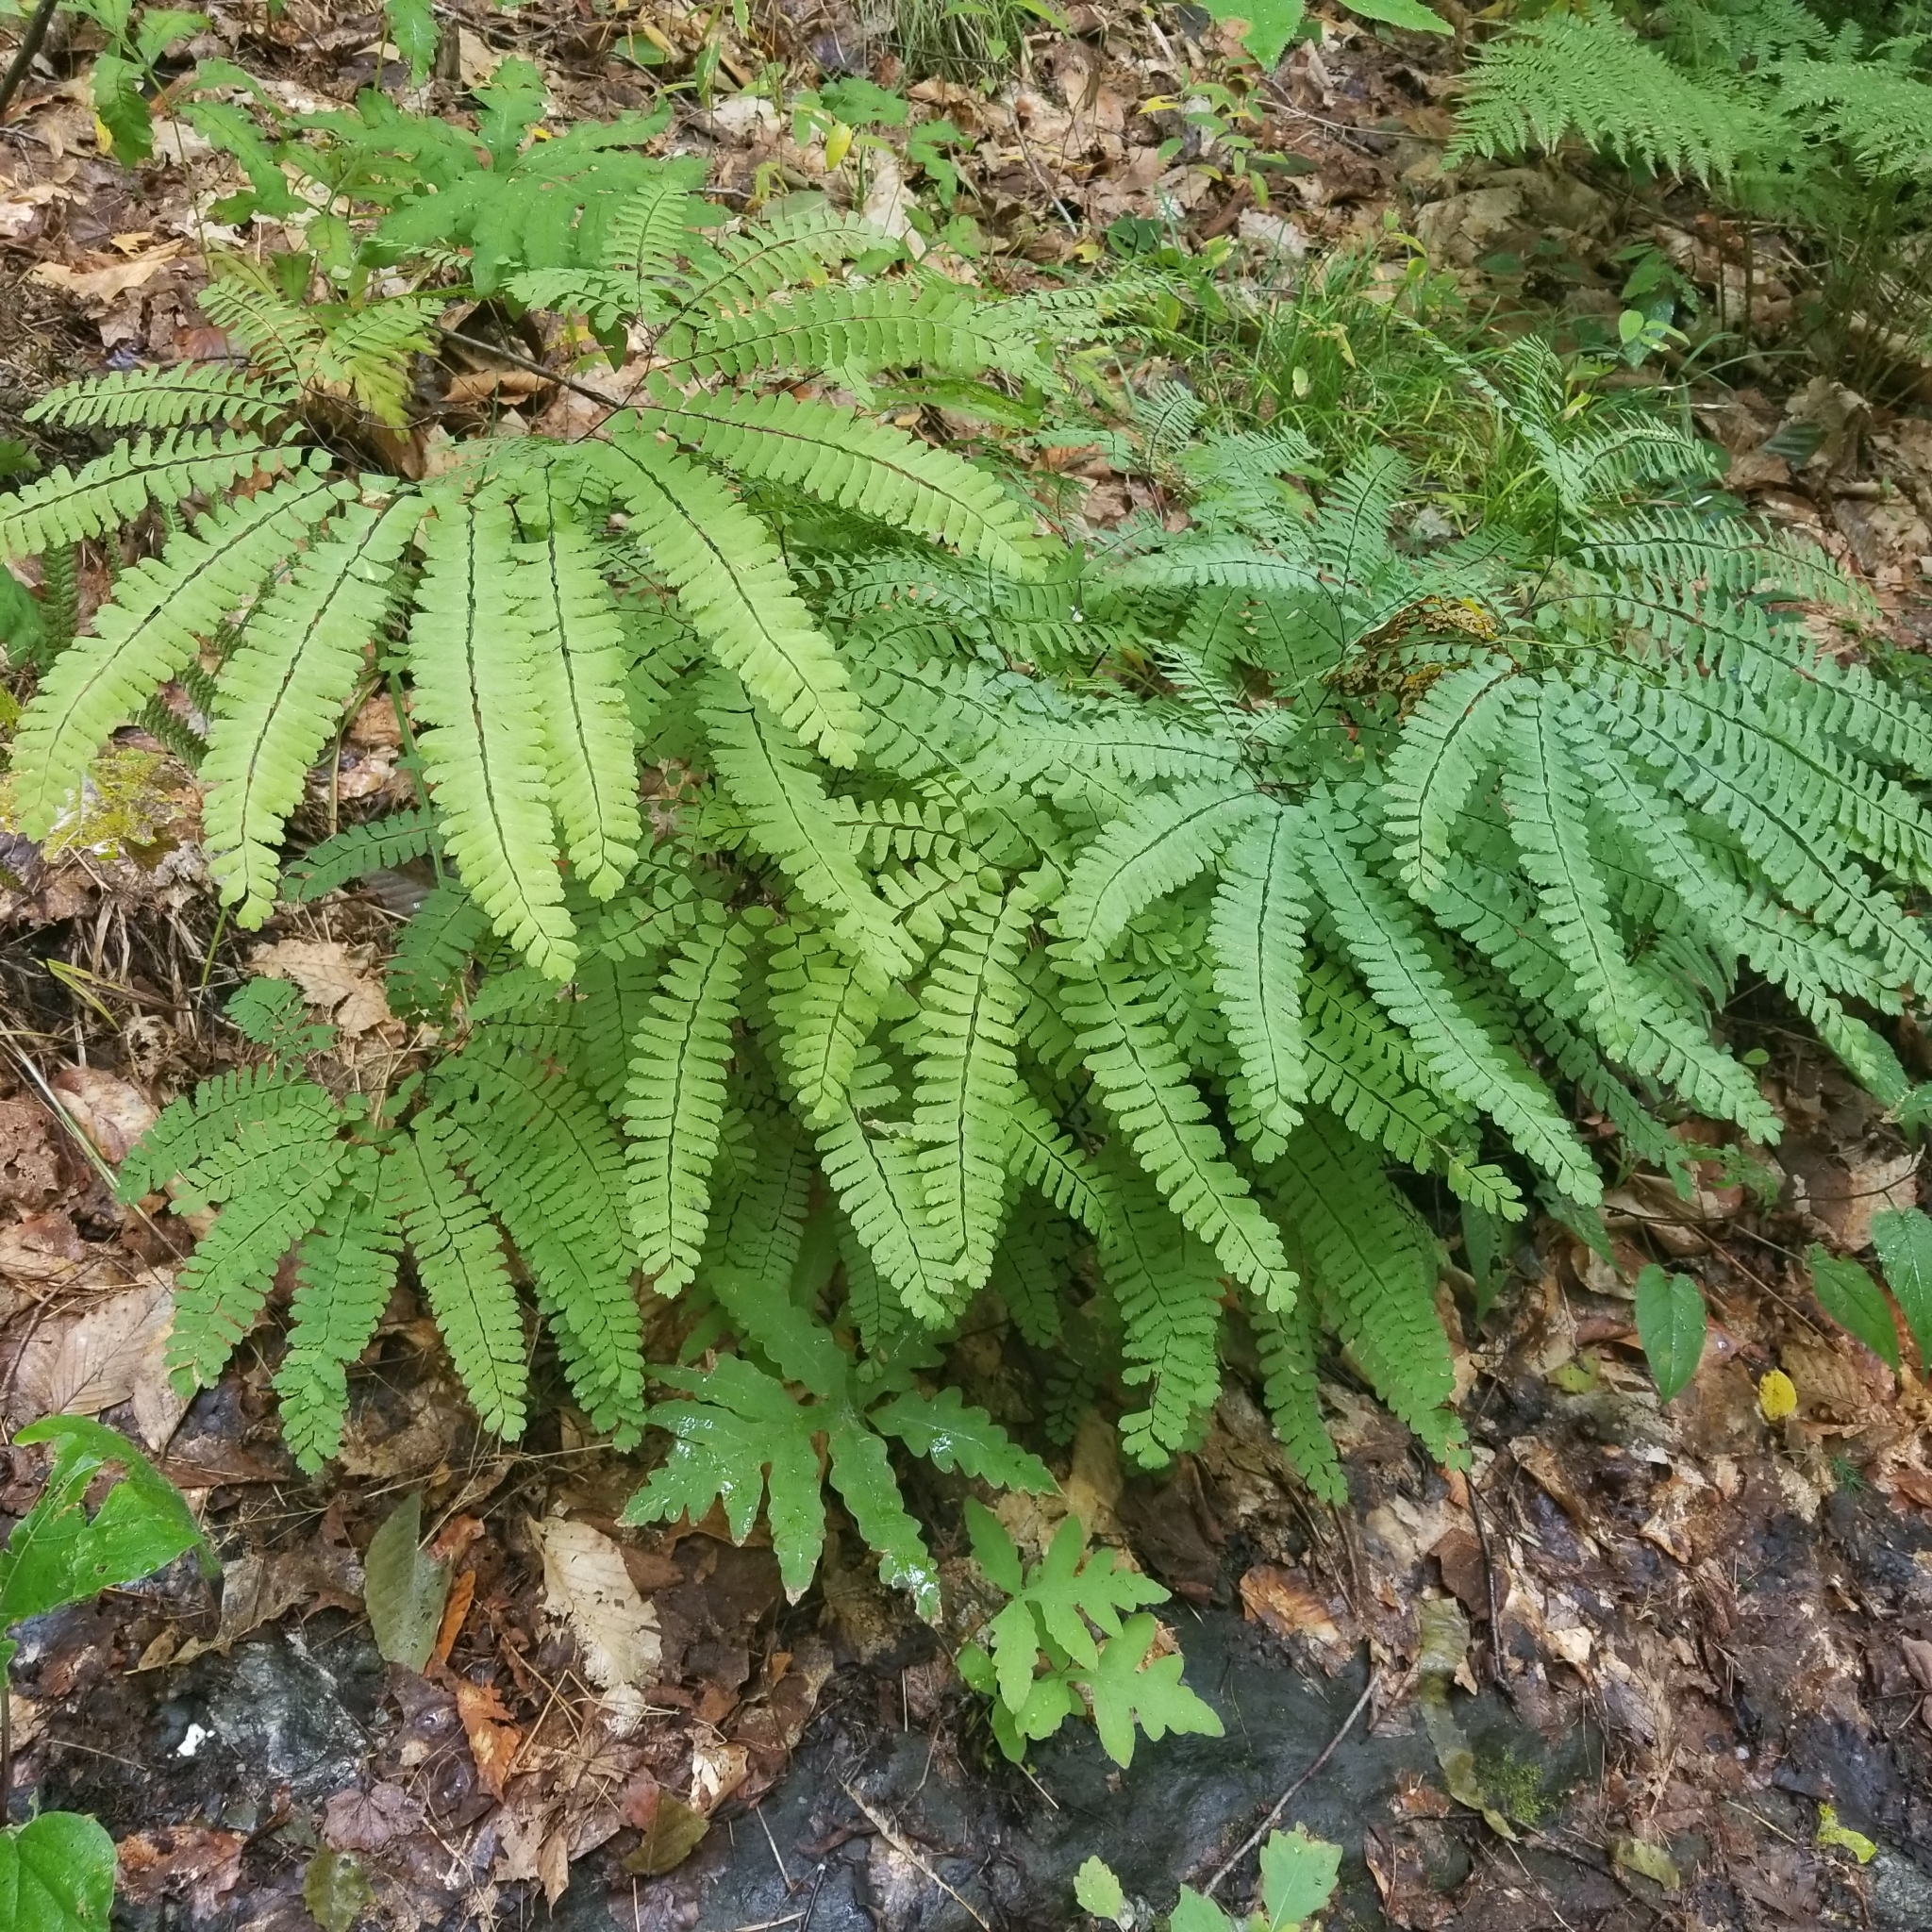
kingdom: Plantae
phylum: Tracheophyta
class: Polypodiopsida
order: Polypodiales
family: Pteridaceae
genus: Adiantum
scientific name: Adiantum pedatum
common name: Five-finger fern
